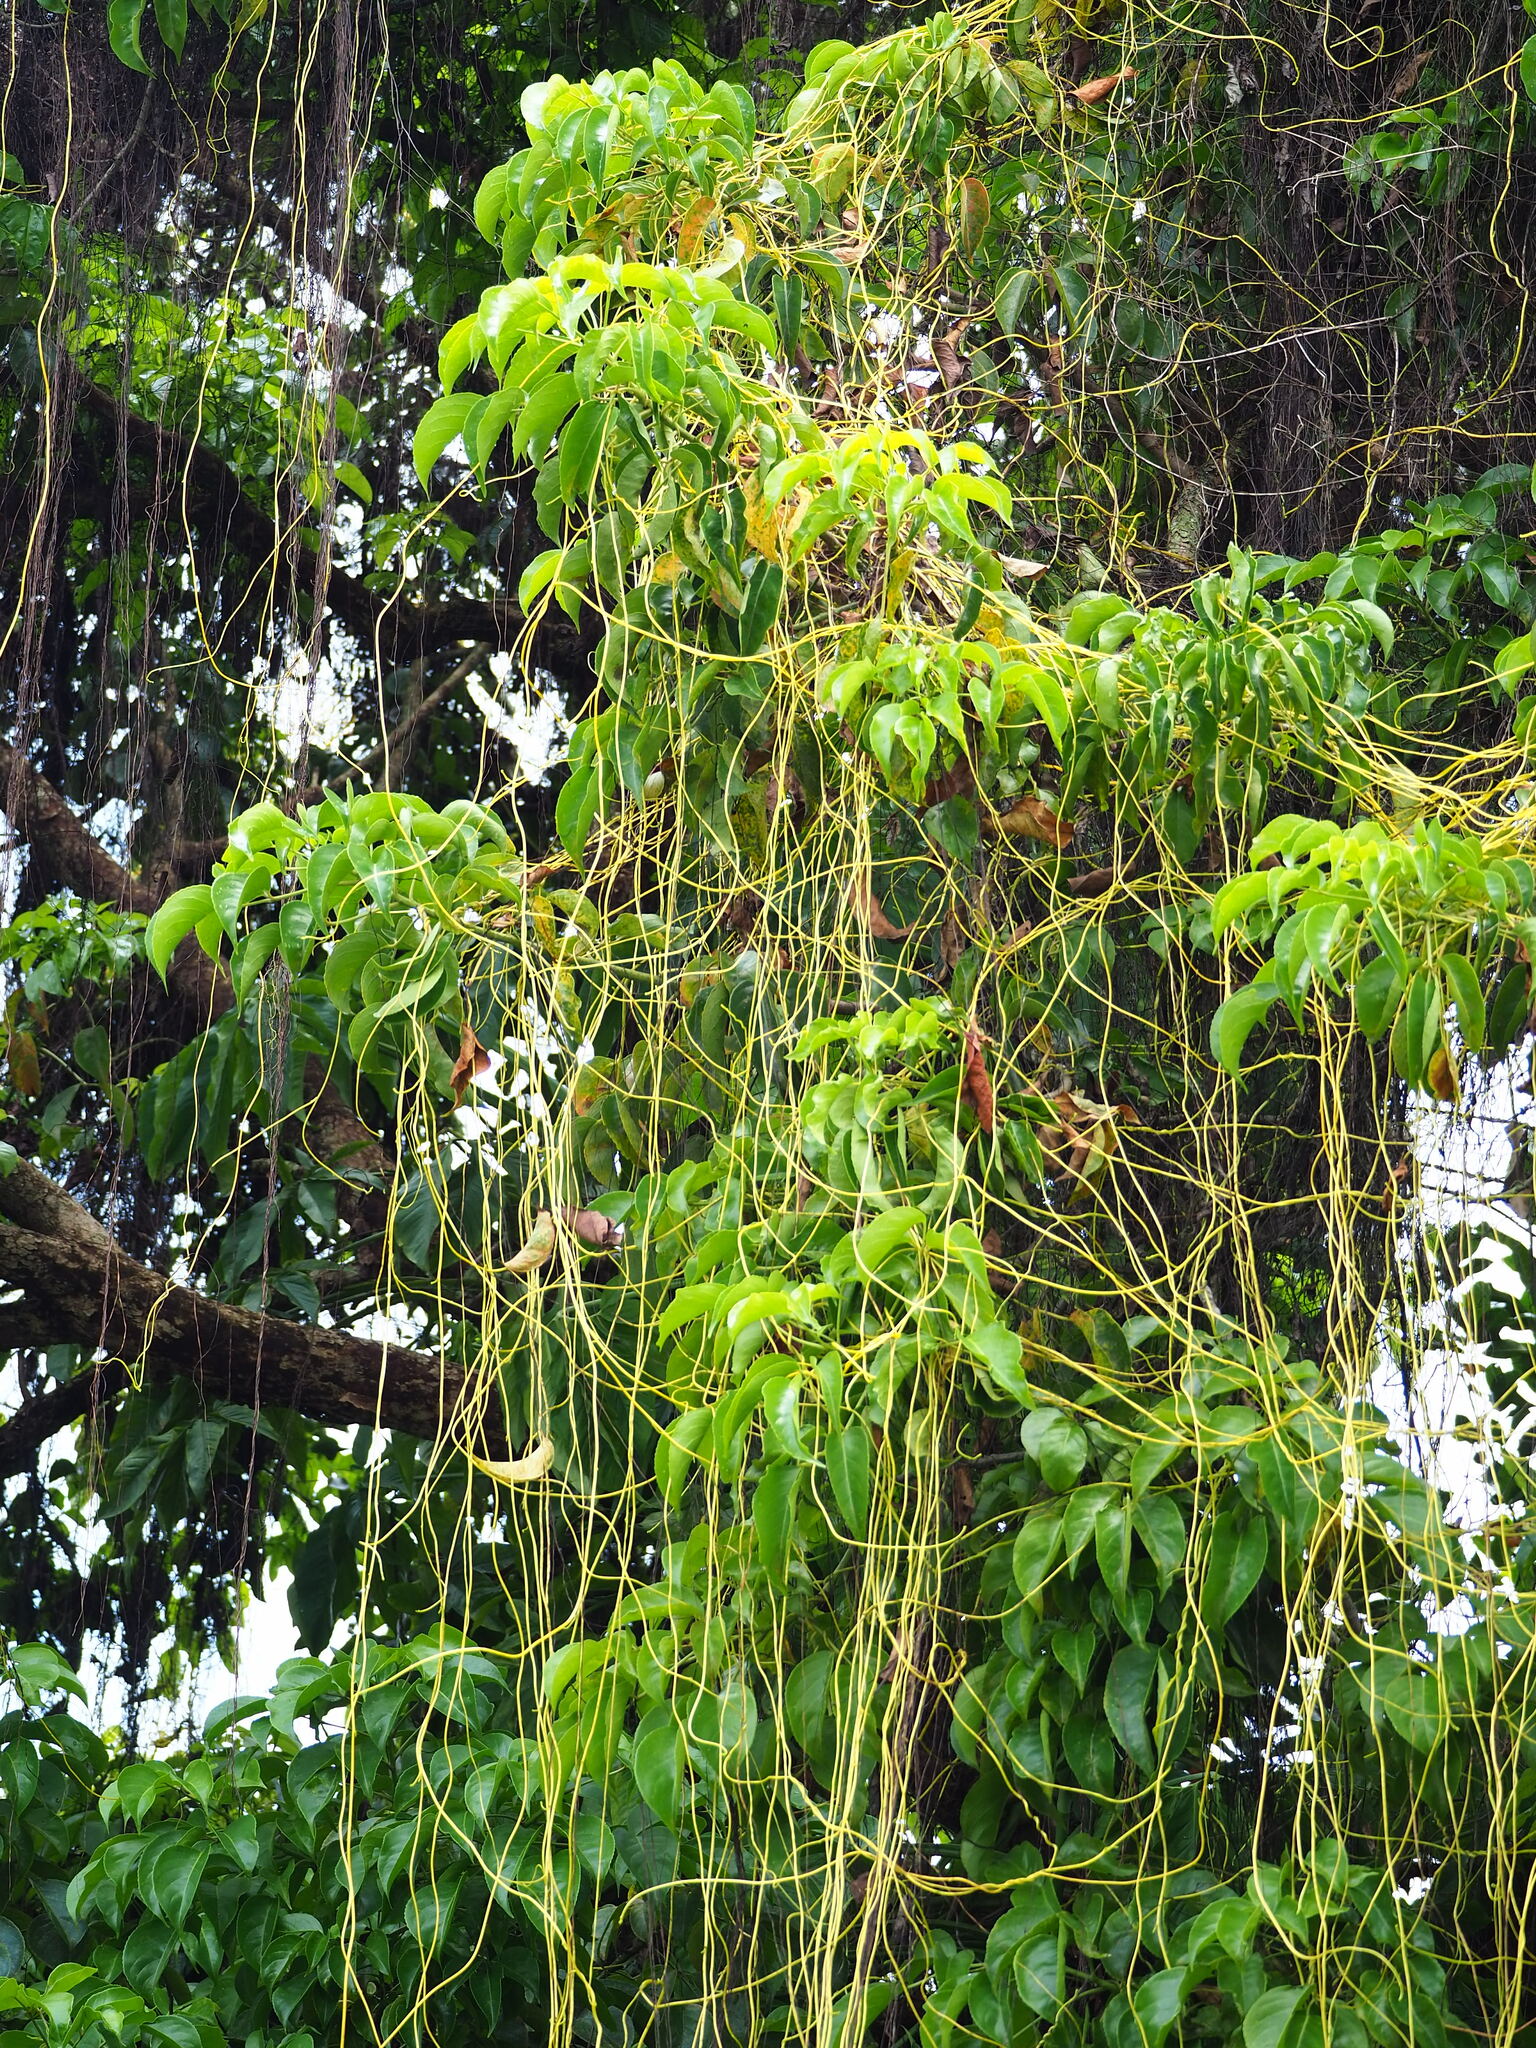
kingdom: Plantae
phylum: Tracheophyta
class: Magnoliopsida
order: Solanales
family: Convolvulaceae
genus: Cuscuta
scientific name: Cuscuta japonica
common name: Japanese dodder
